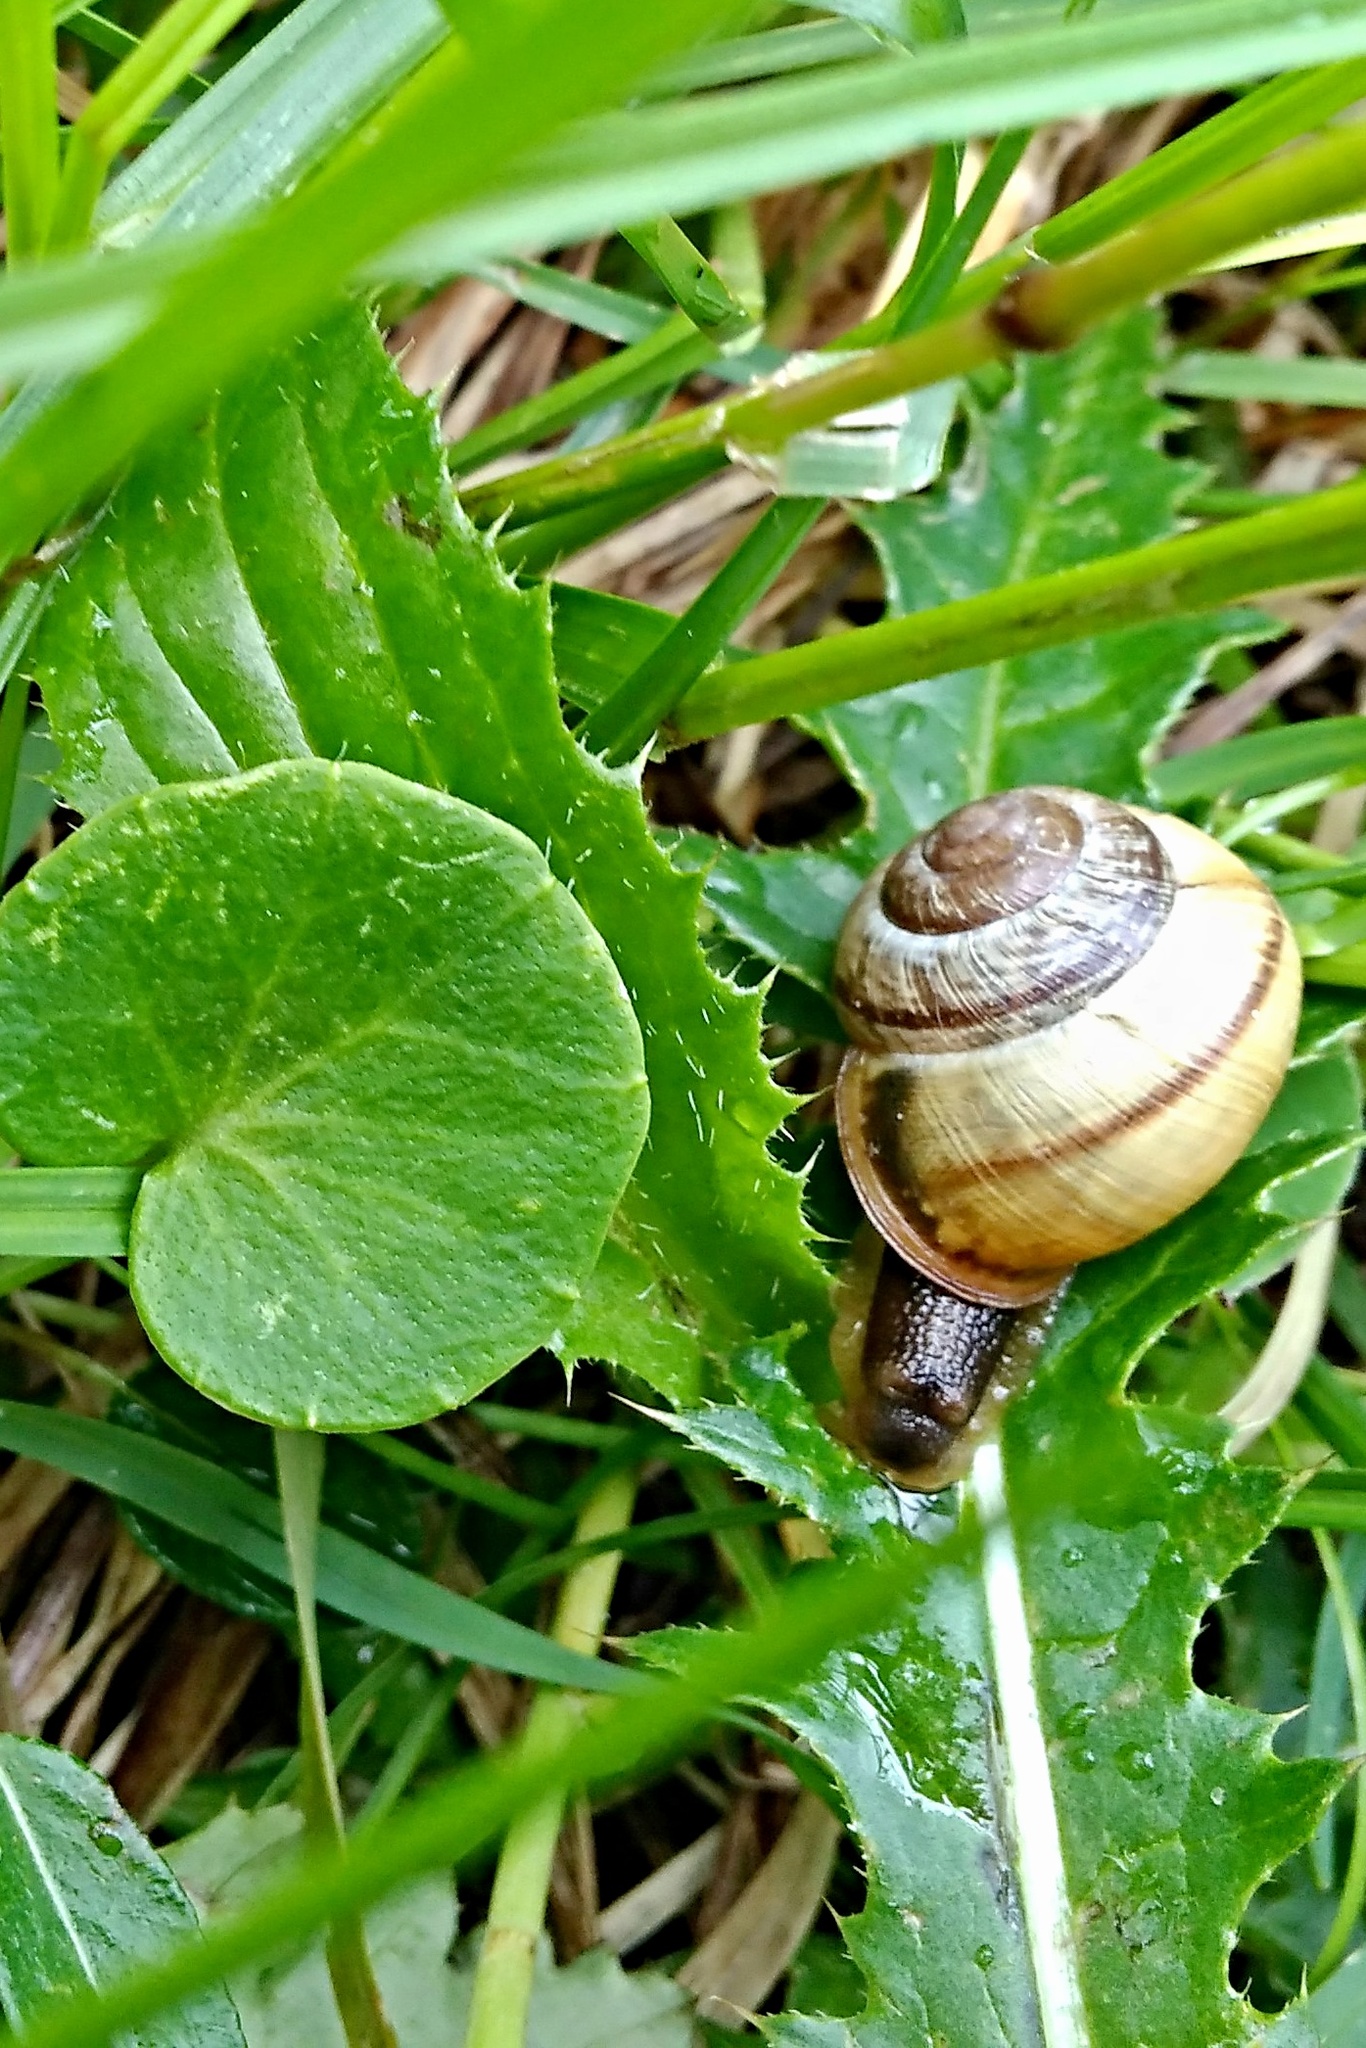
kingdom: Animalia
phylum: Mollusca
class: Gastropoda
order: Stylommatophora
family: Helicidae
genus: Arianta
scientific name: Arianta arbustorum
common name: Copse snail
